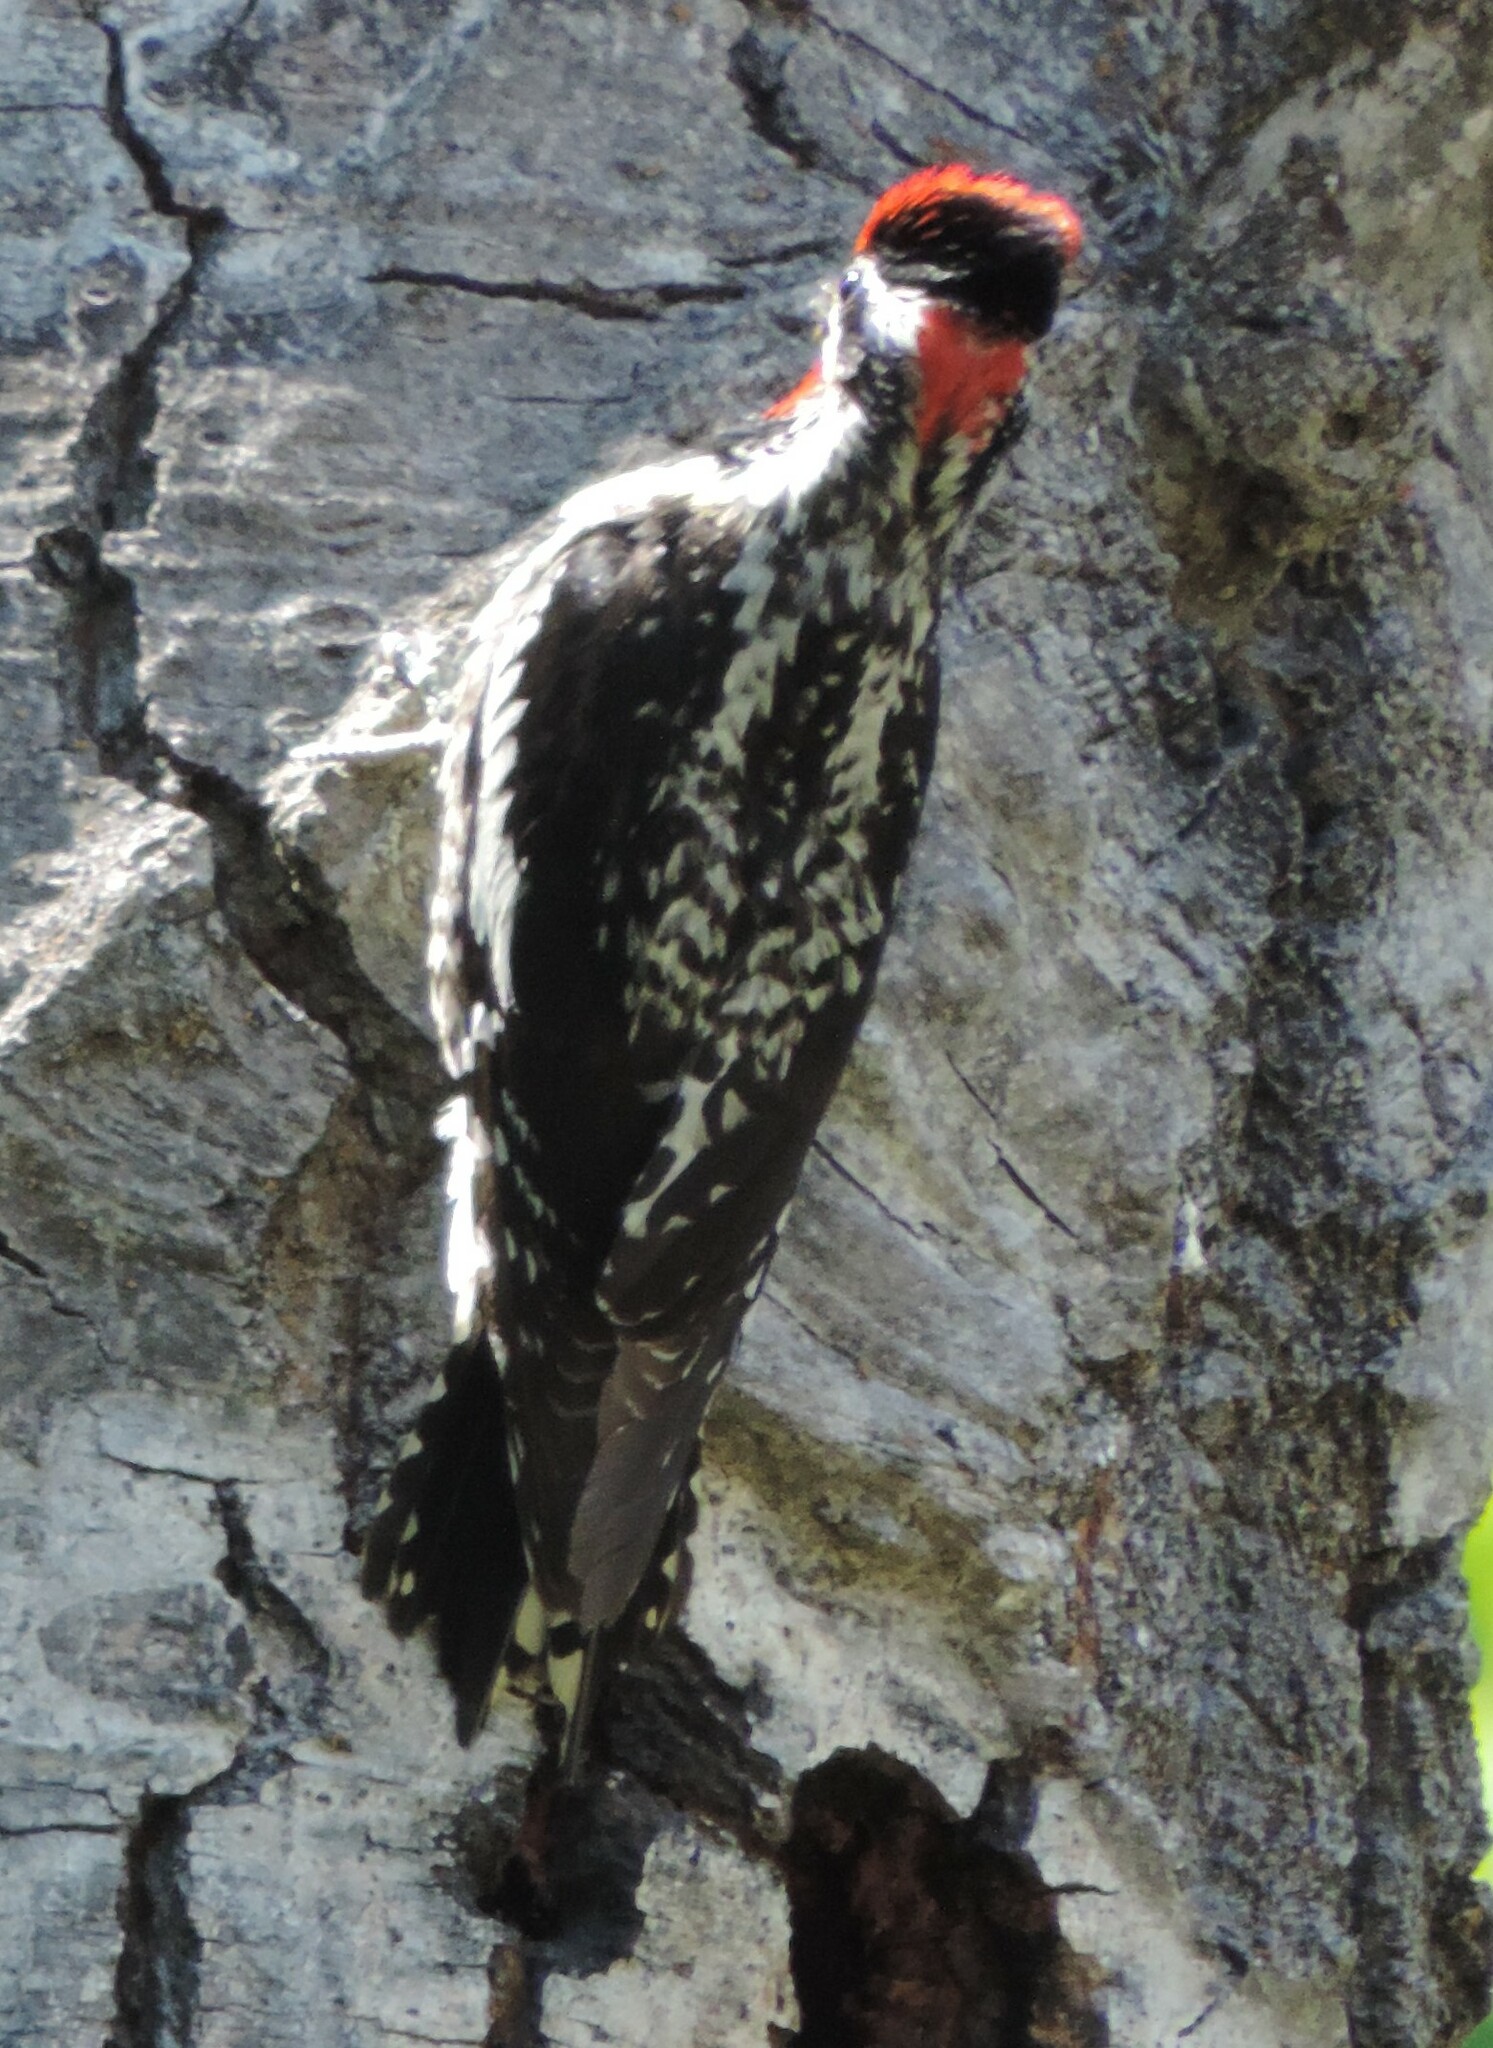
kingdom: Animalia
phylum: Chordata
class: Aves
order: Piciformes
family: Picidae
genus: Sphyrapicus
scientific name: Sphyrapicus nuchalis
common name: Red-naped sapsucker
